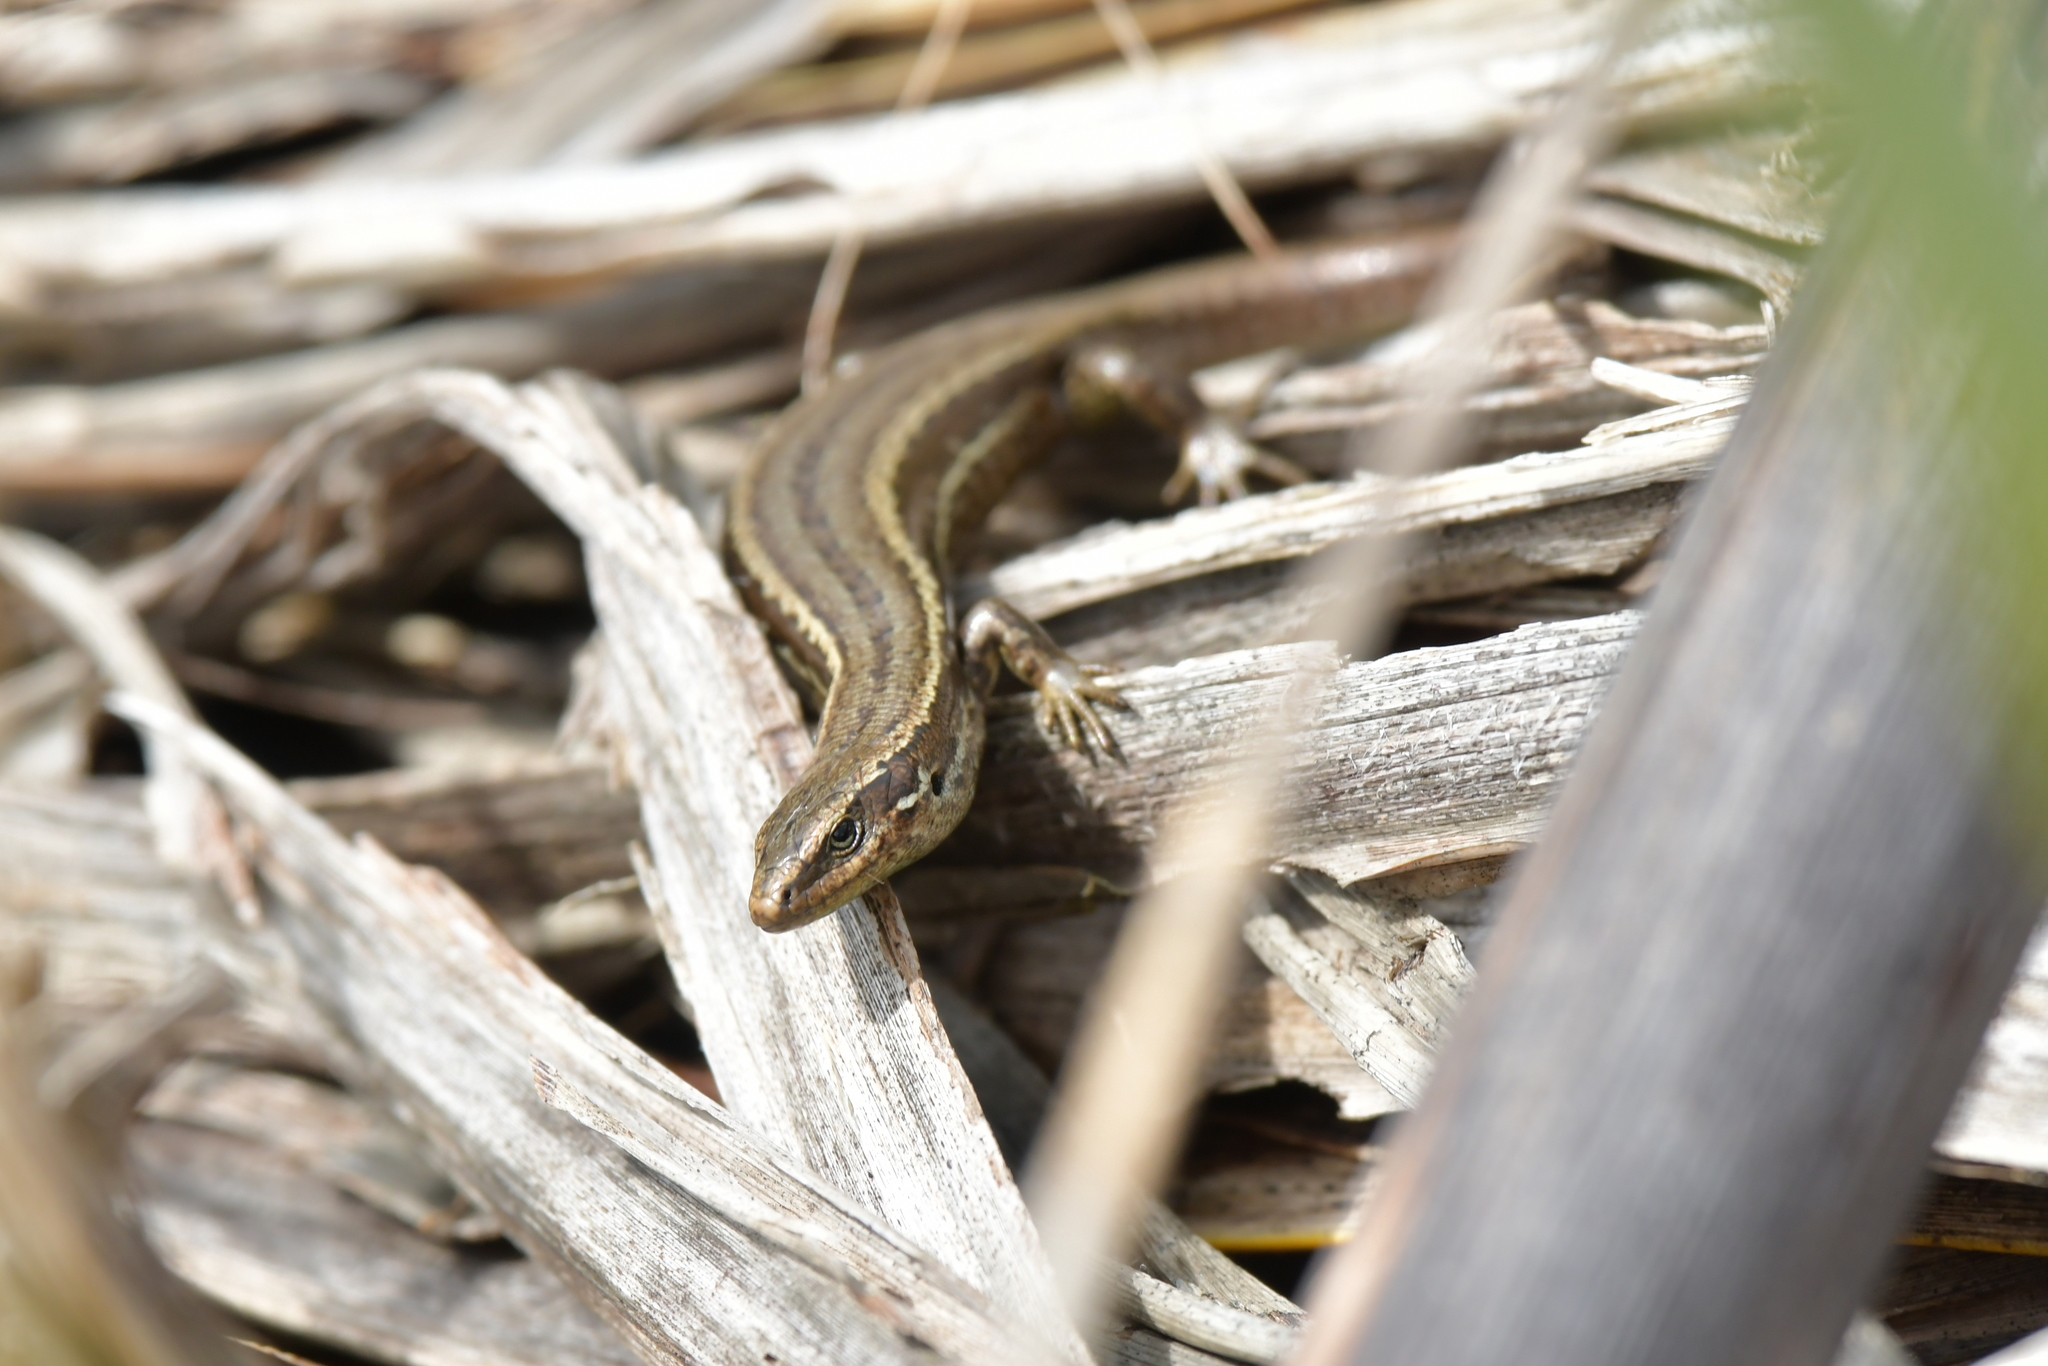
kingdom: Animalia
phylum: Chordata
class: Squamata
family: Scincidae
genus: Oligosoma
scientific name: Oligosoma polychroma
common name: Common new zealand skink
